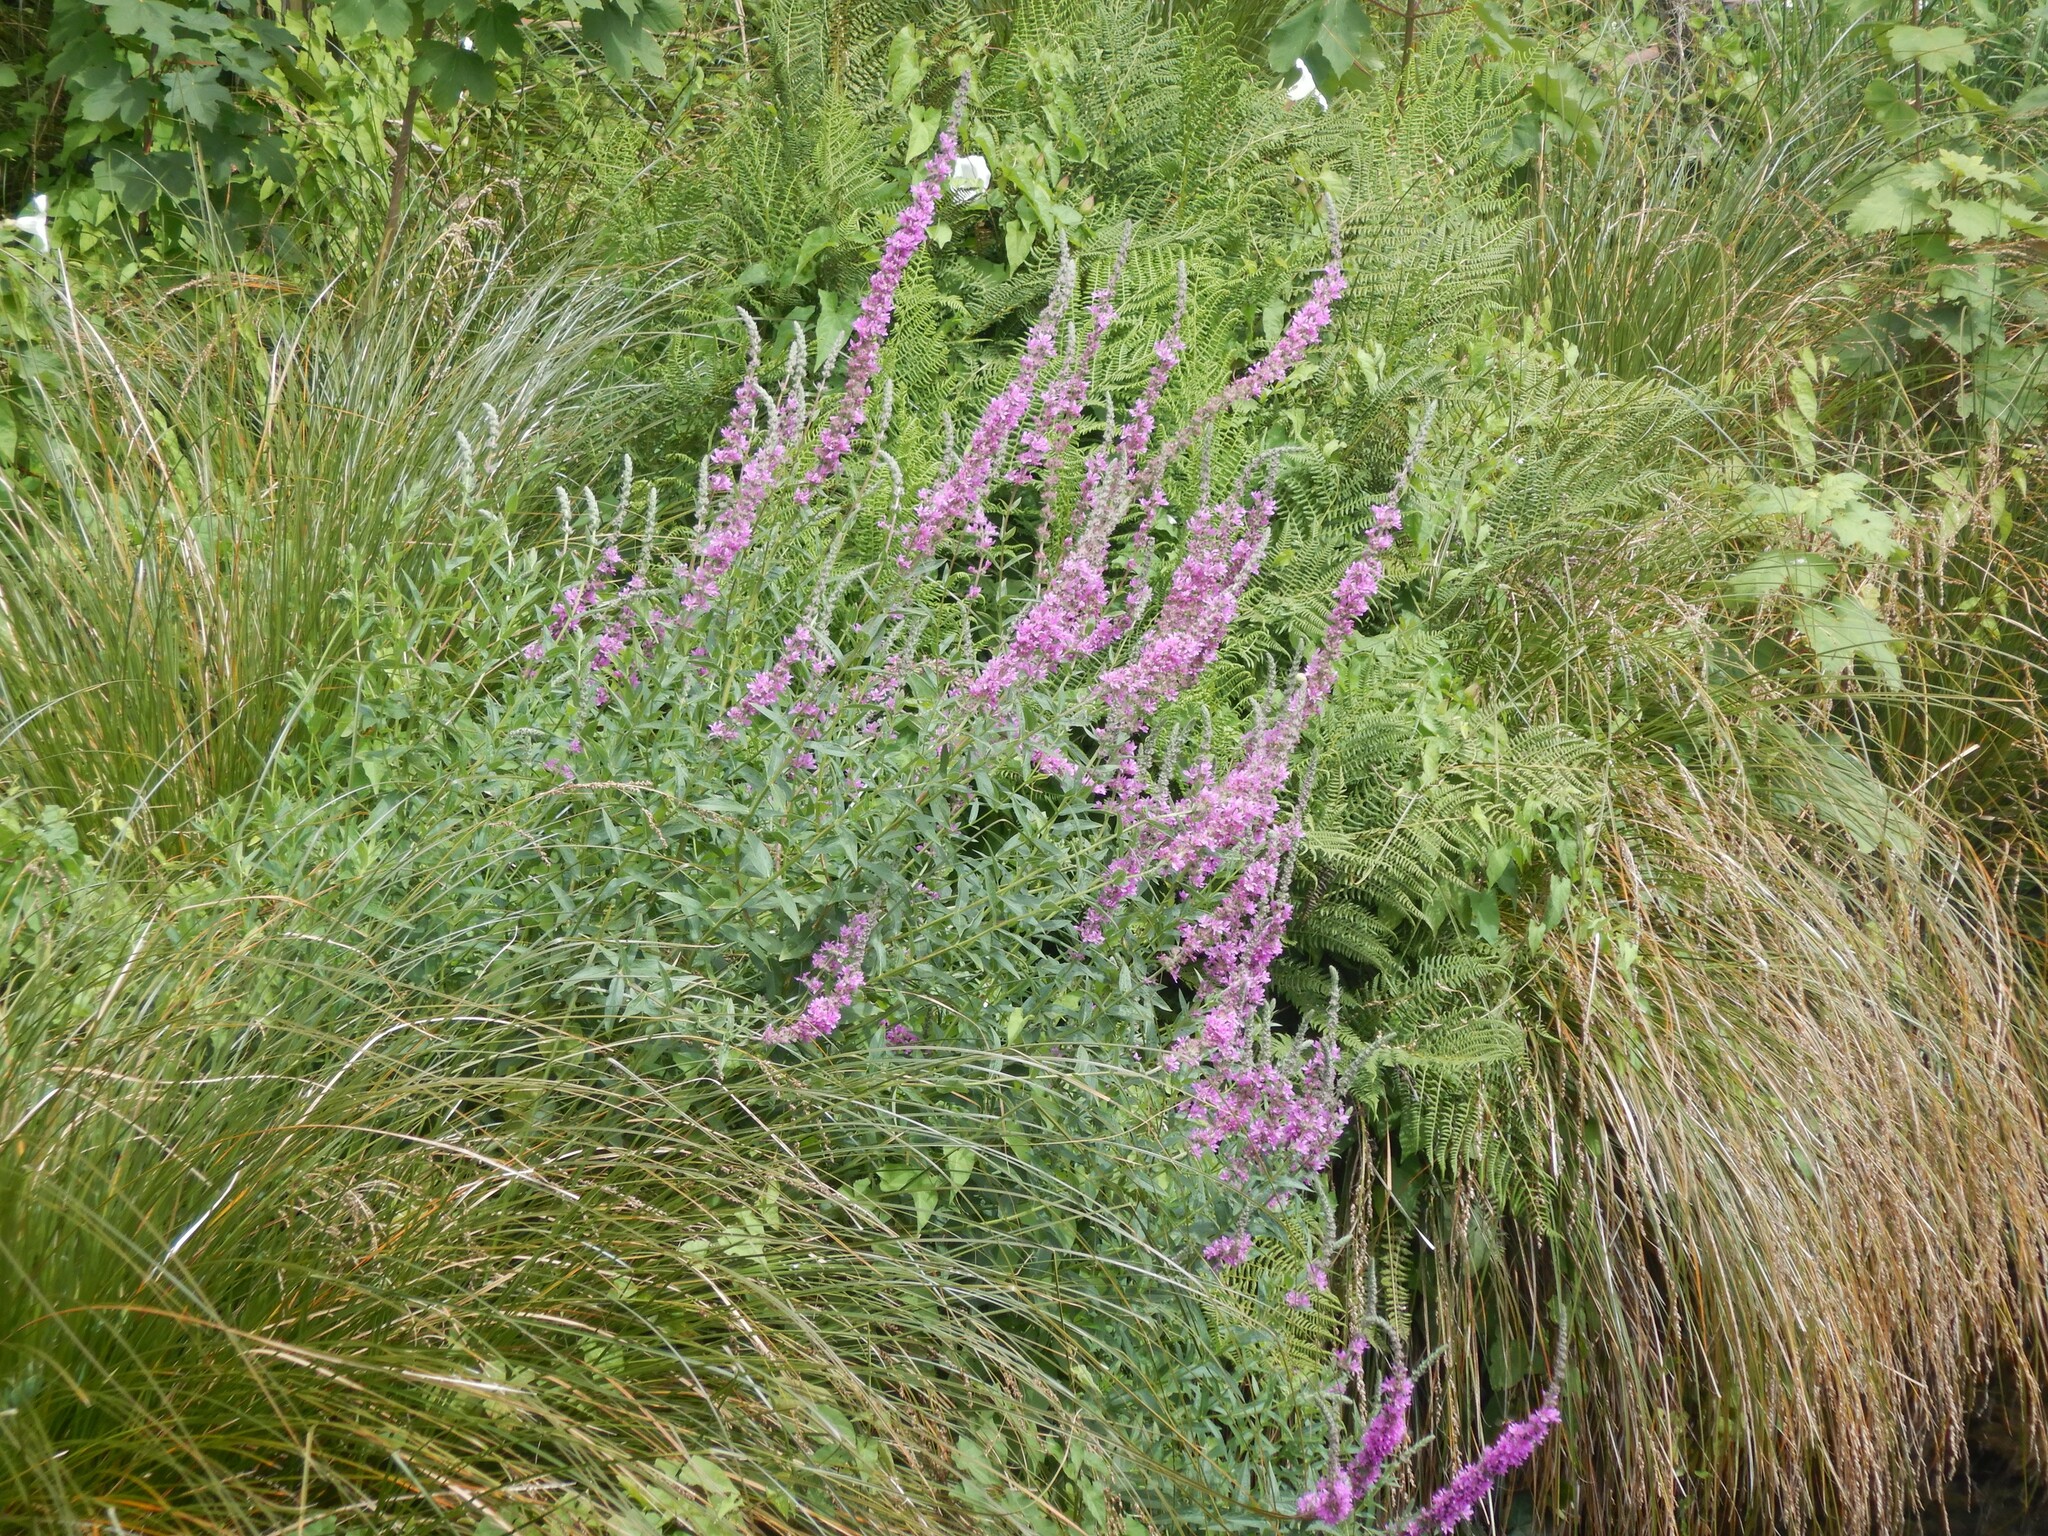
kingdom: Plantae
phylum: Tracheophyta
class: Magnoliopsida
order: Myrtales
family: Lythraceae
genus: Lythrum
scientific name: Lythrum salicaria
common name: Purple loosestrife
